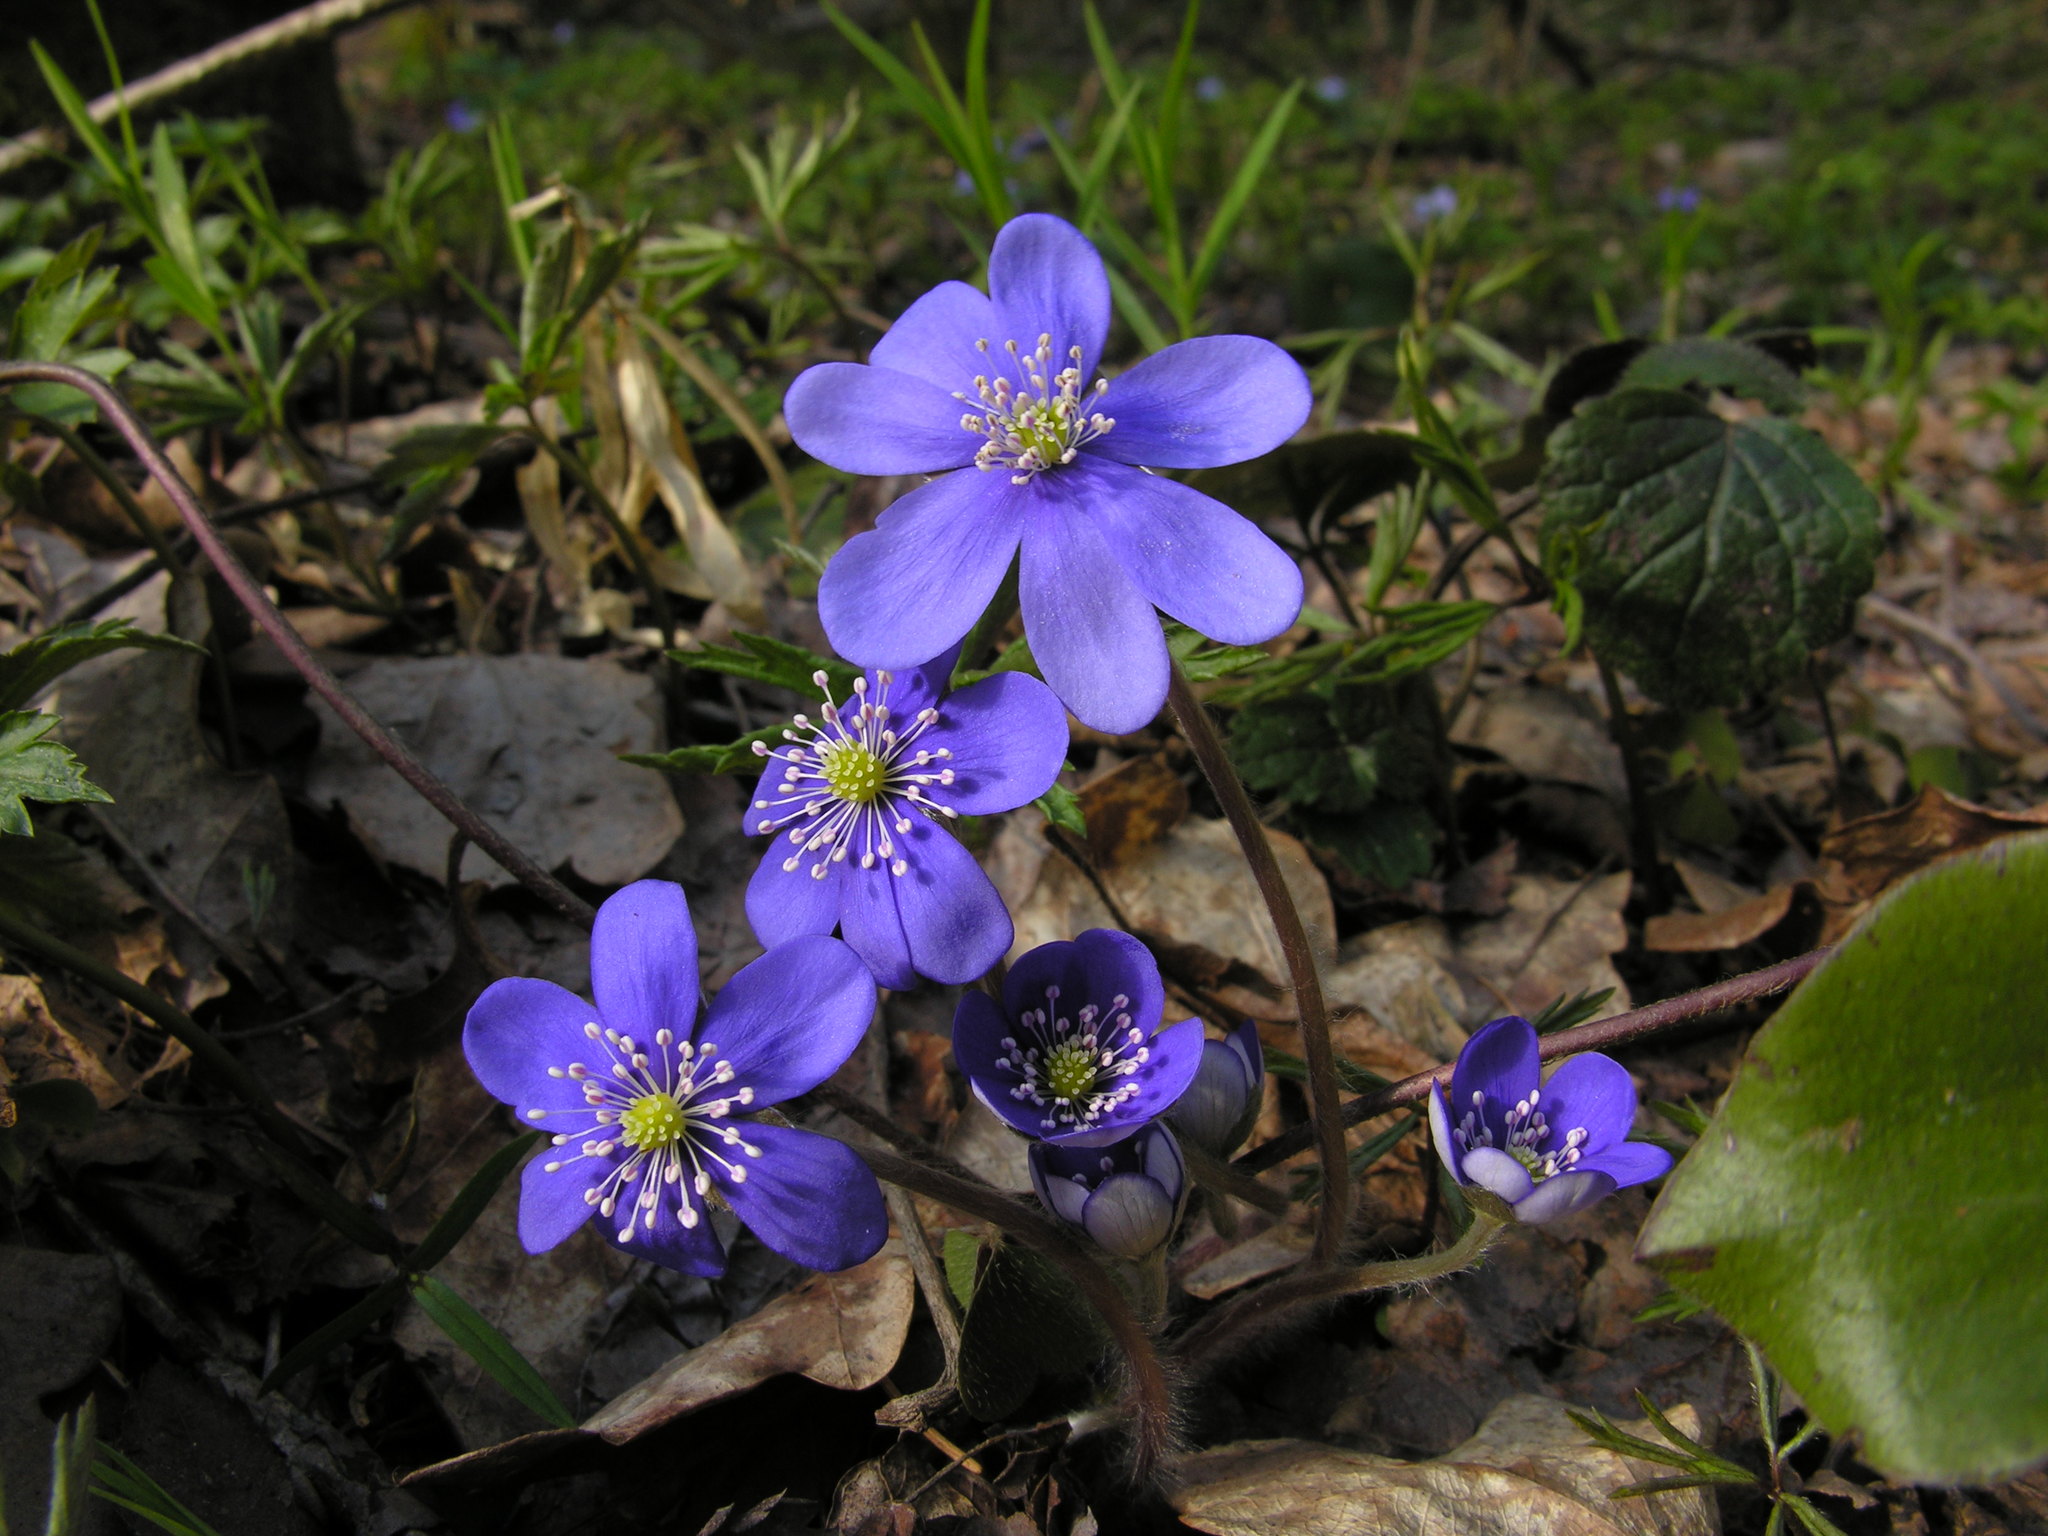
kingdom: Plantae
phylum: Tracheophyta
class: Magnoliopsida
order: Ranunculales
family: Ranunculaceae
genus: Hepatica
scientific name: Hepatica nobilis
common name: Liverleaf
